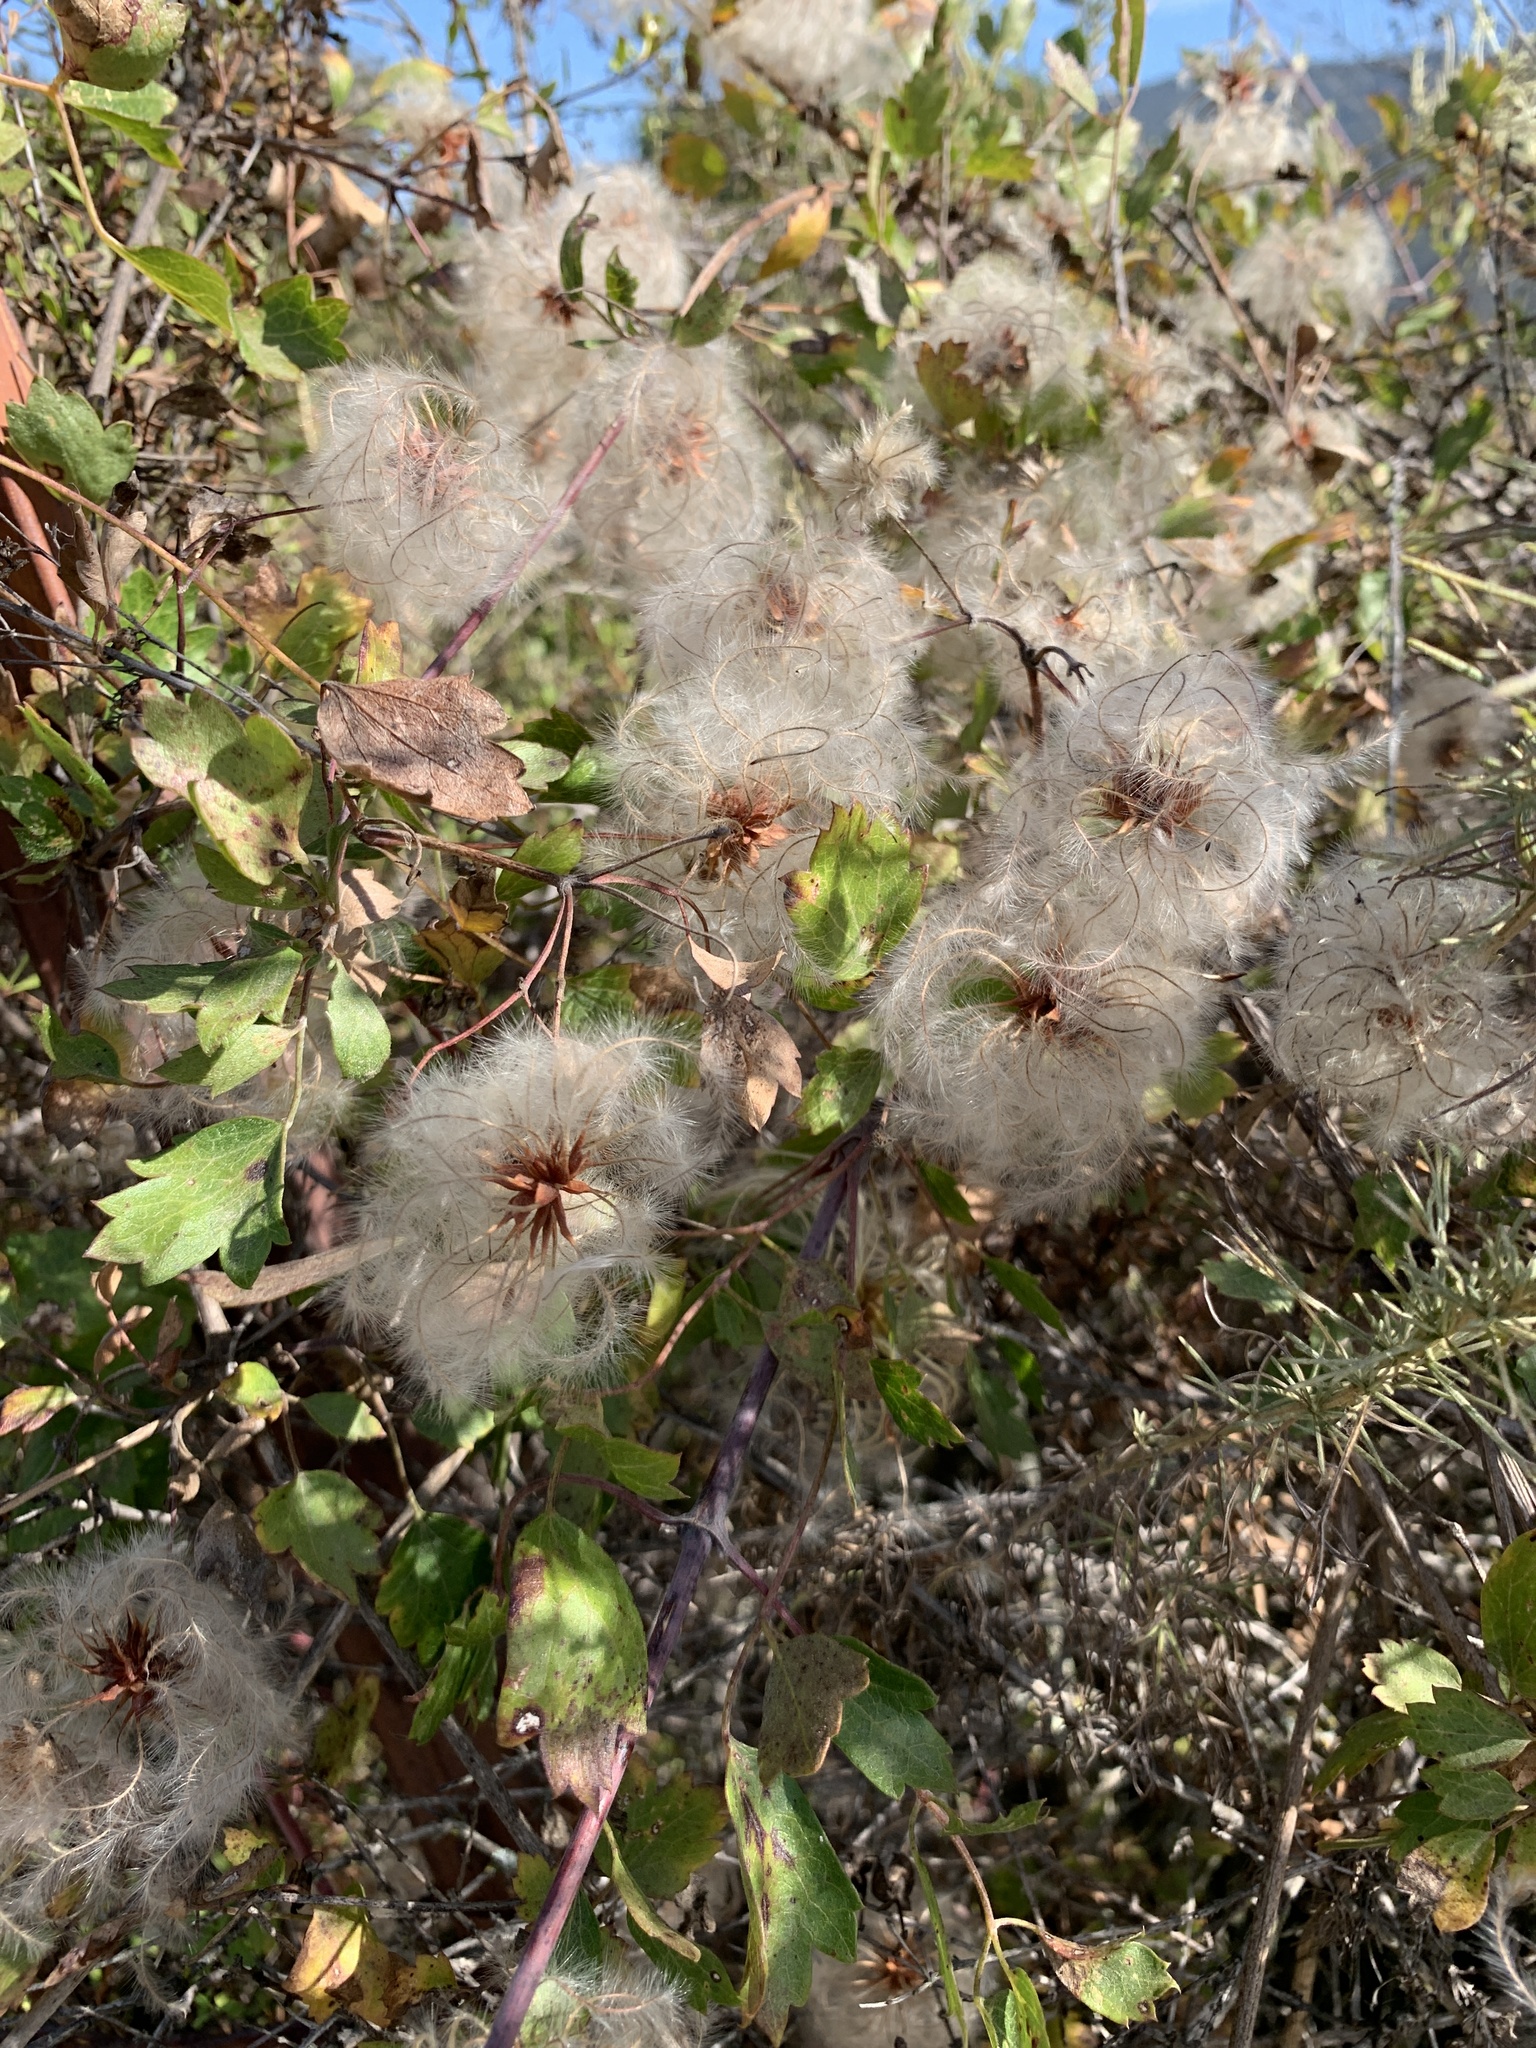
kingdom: Plantae
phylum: Tracheophyta
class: Magnoliopsida
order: Ranunculales
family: Ranunculaceae
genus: Clematis
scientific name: Clematis pauciflora
